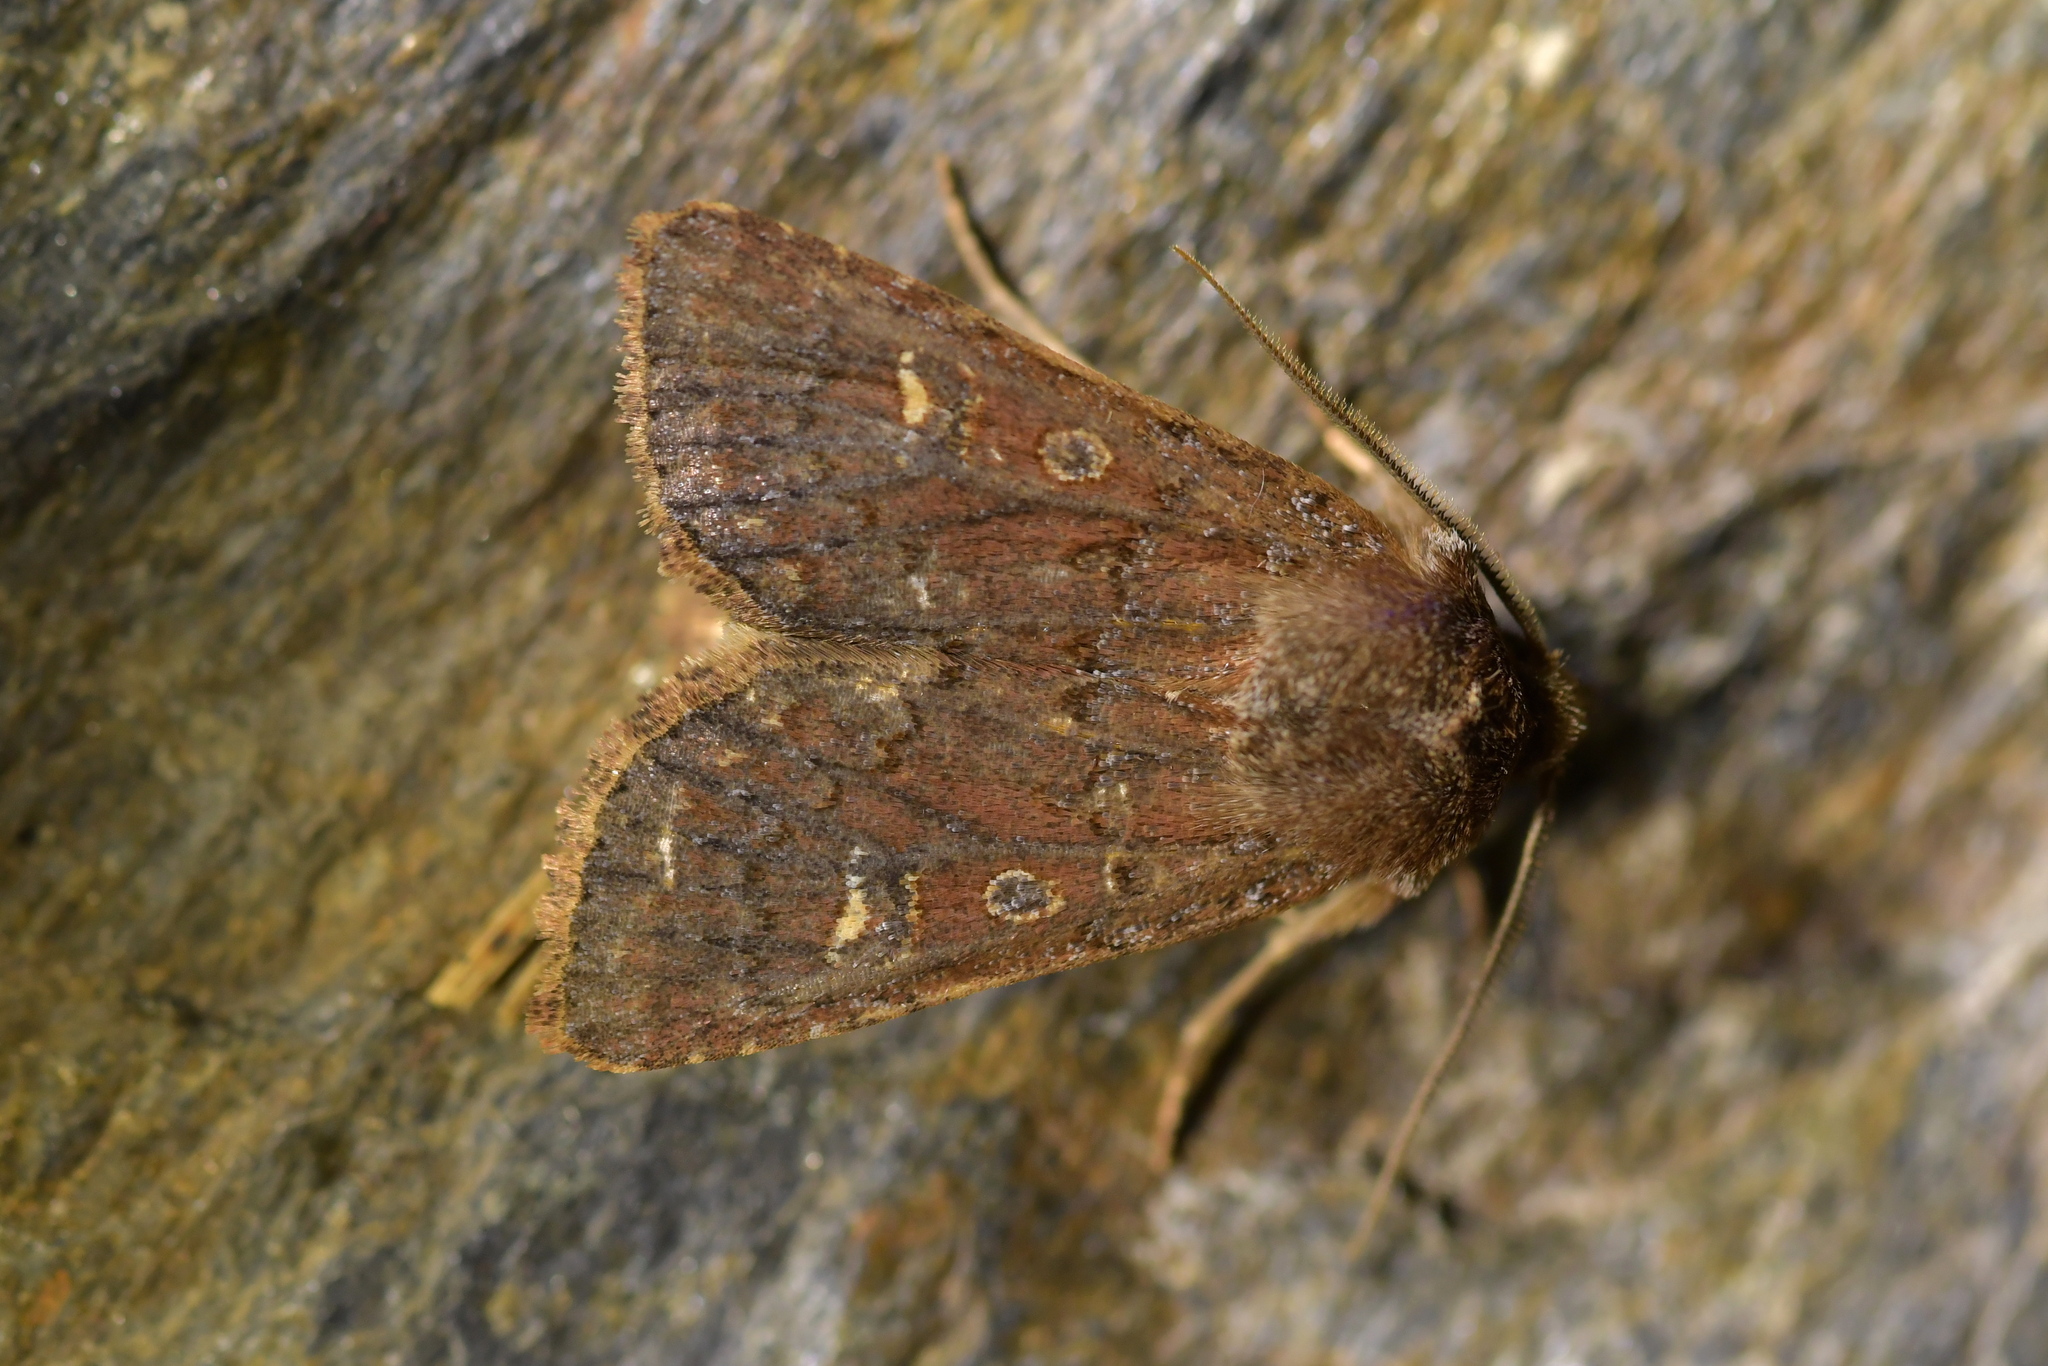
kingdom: Animalia
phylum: Arthropoda
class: Insecta
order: Lepidoptera
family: Noctuidae
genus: Ichneutica
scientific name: Ichneutica agorastis
